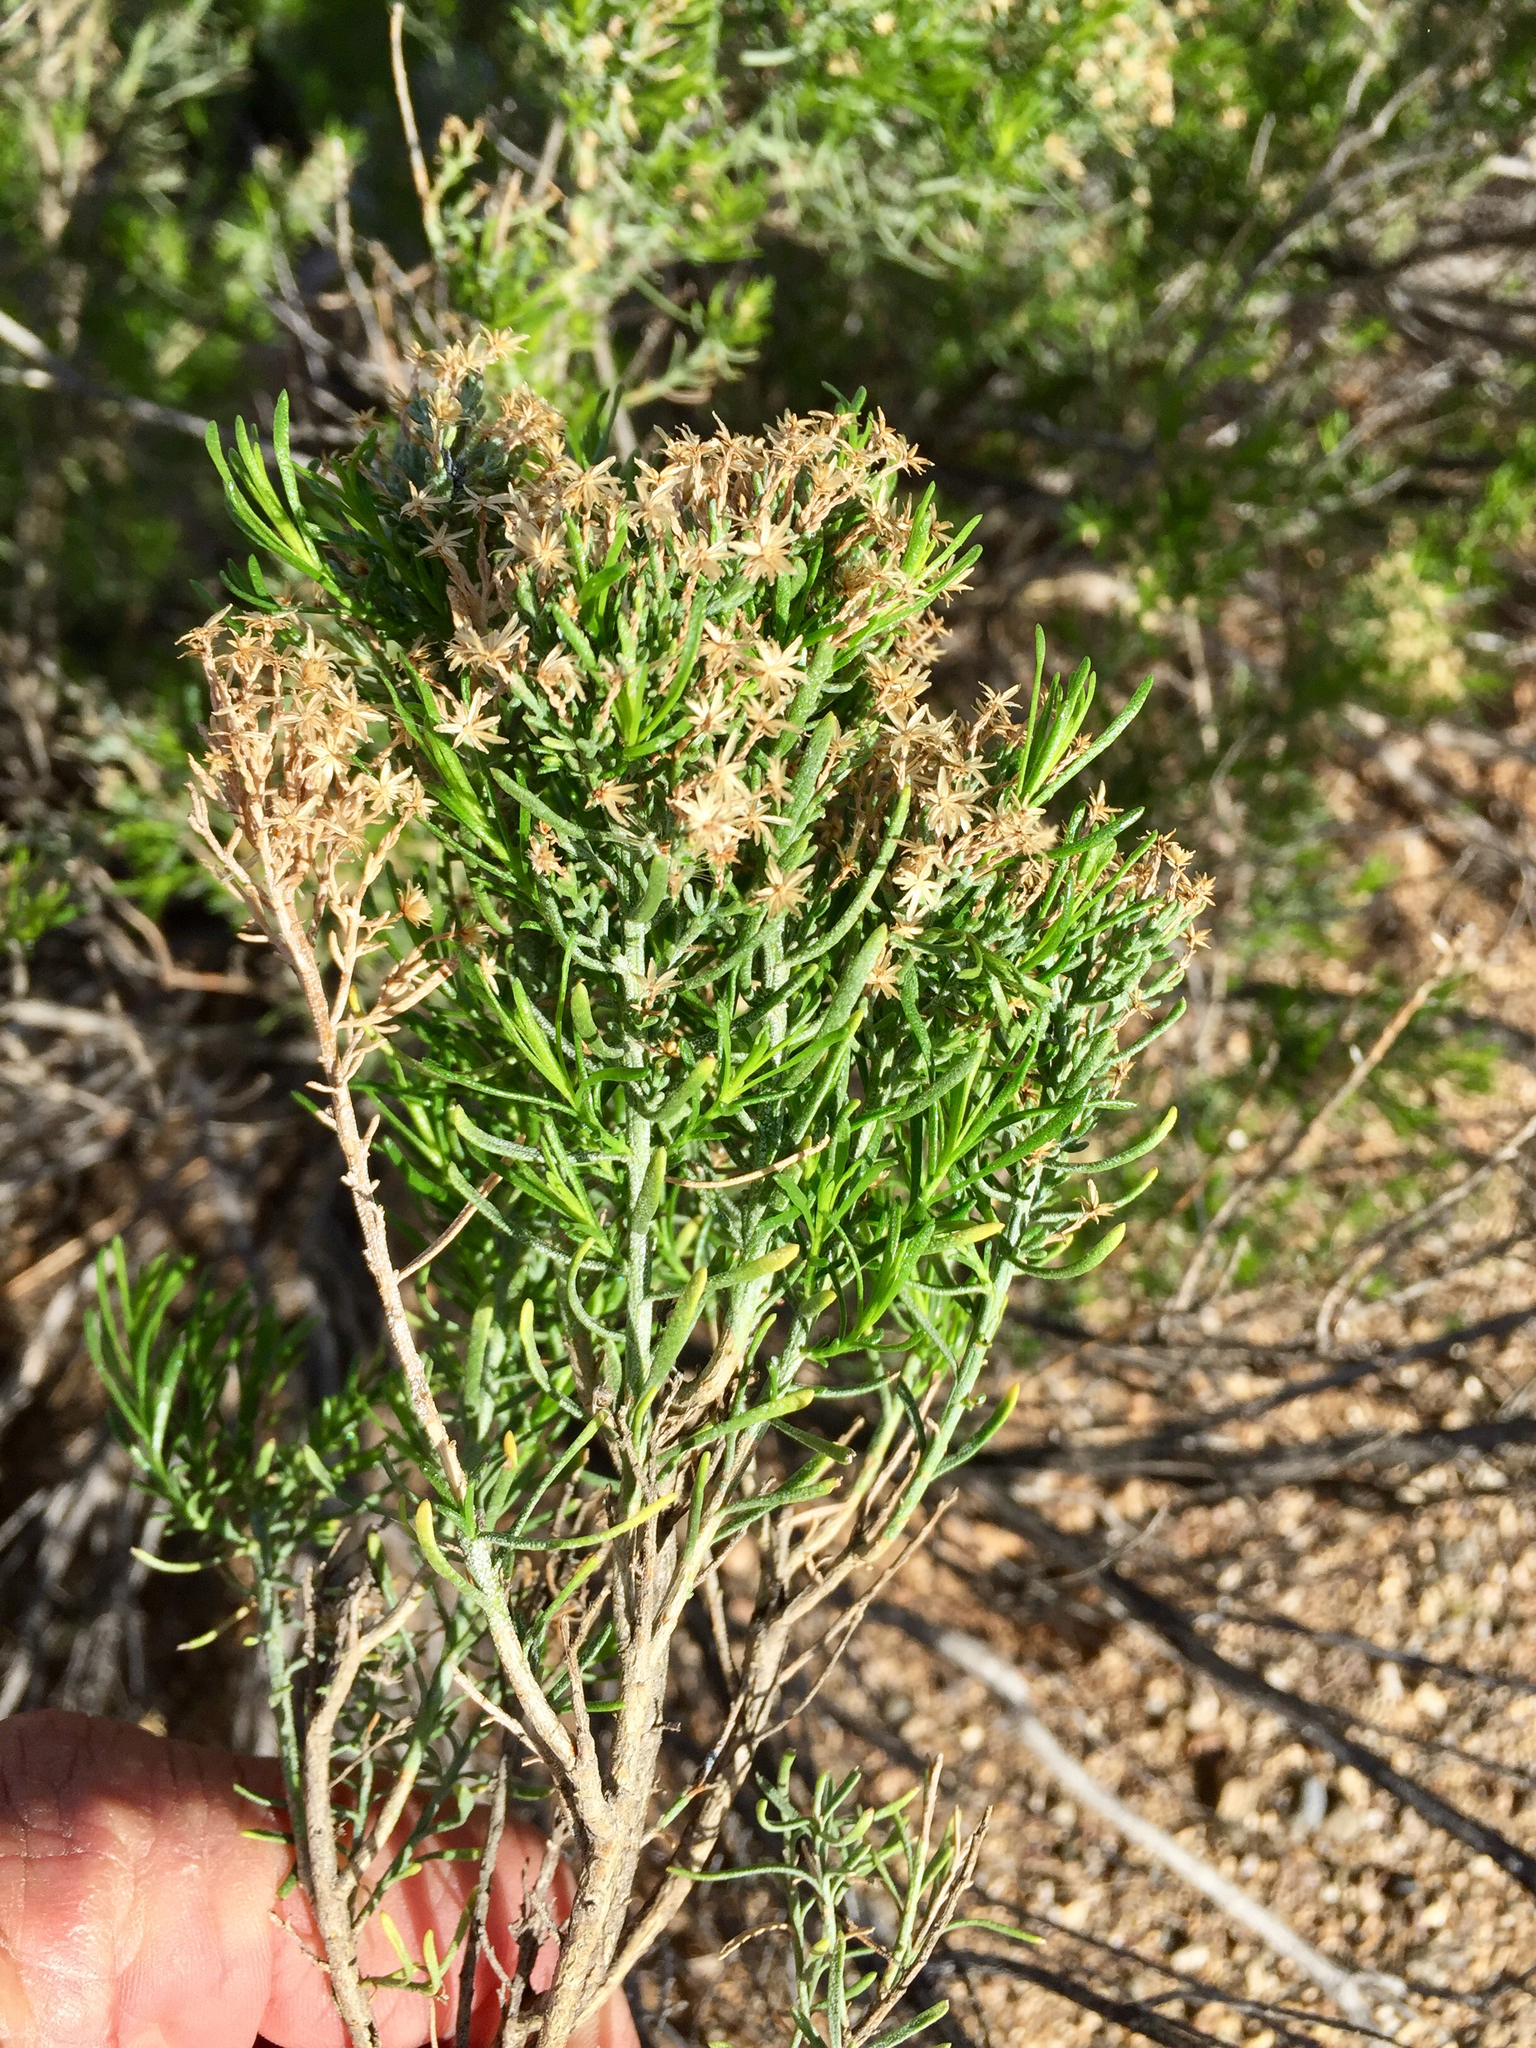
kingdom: Plantae
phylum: Tracheophyta
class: Magnoliopsida
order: Asterales
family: Asteraceae
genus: Ericameria
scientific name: Ericameria laricifolia
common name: Turpentine-bush
